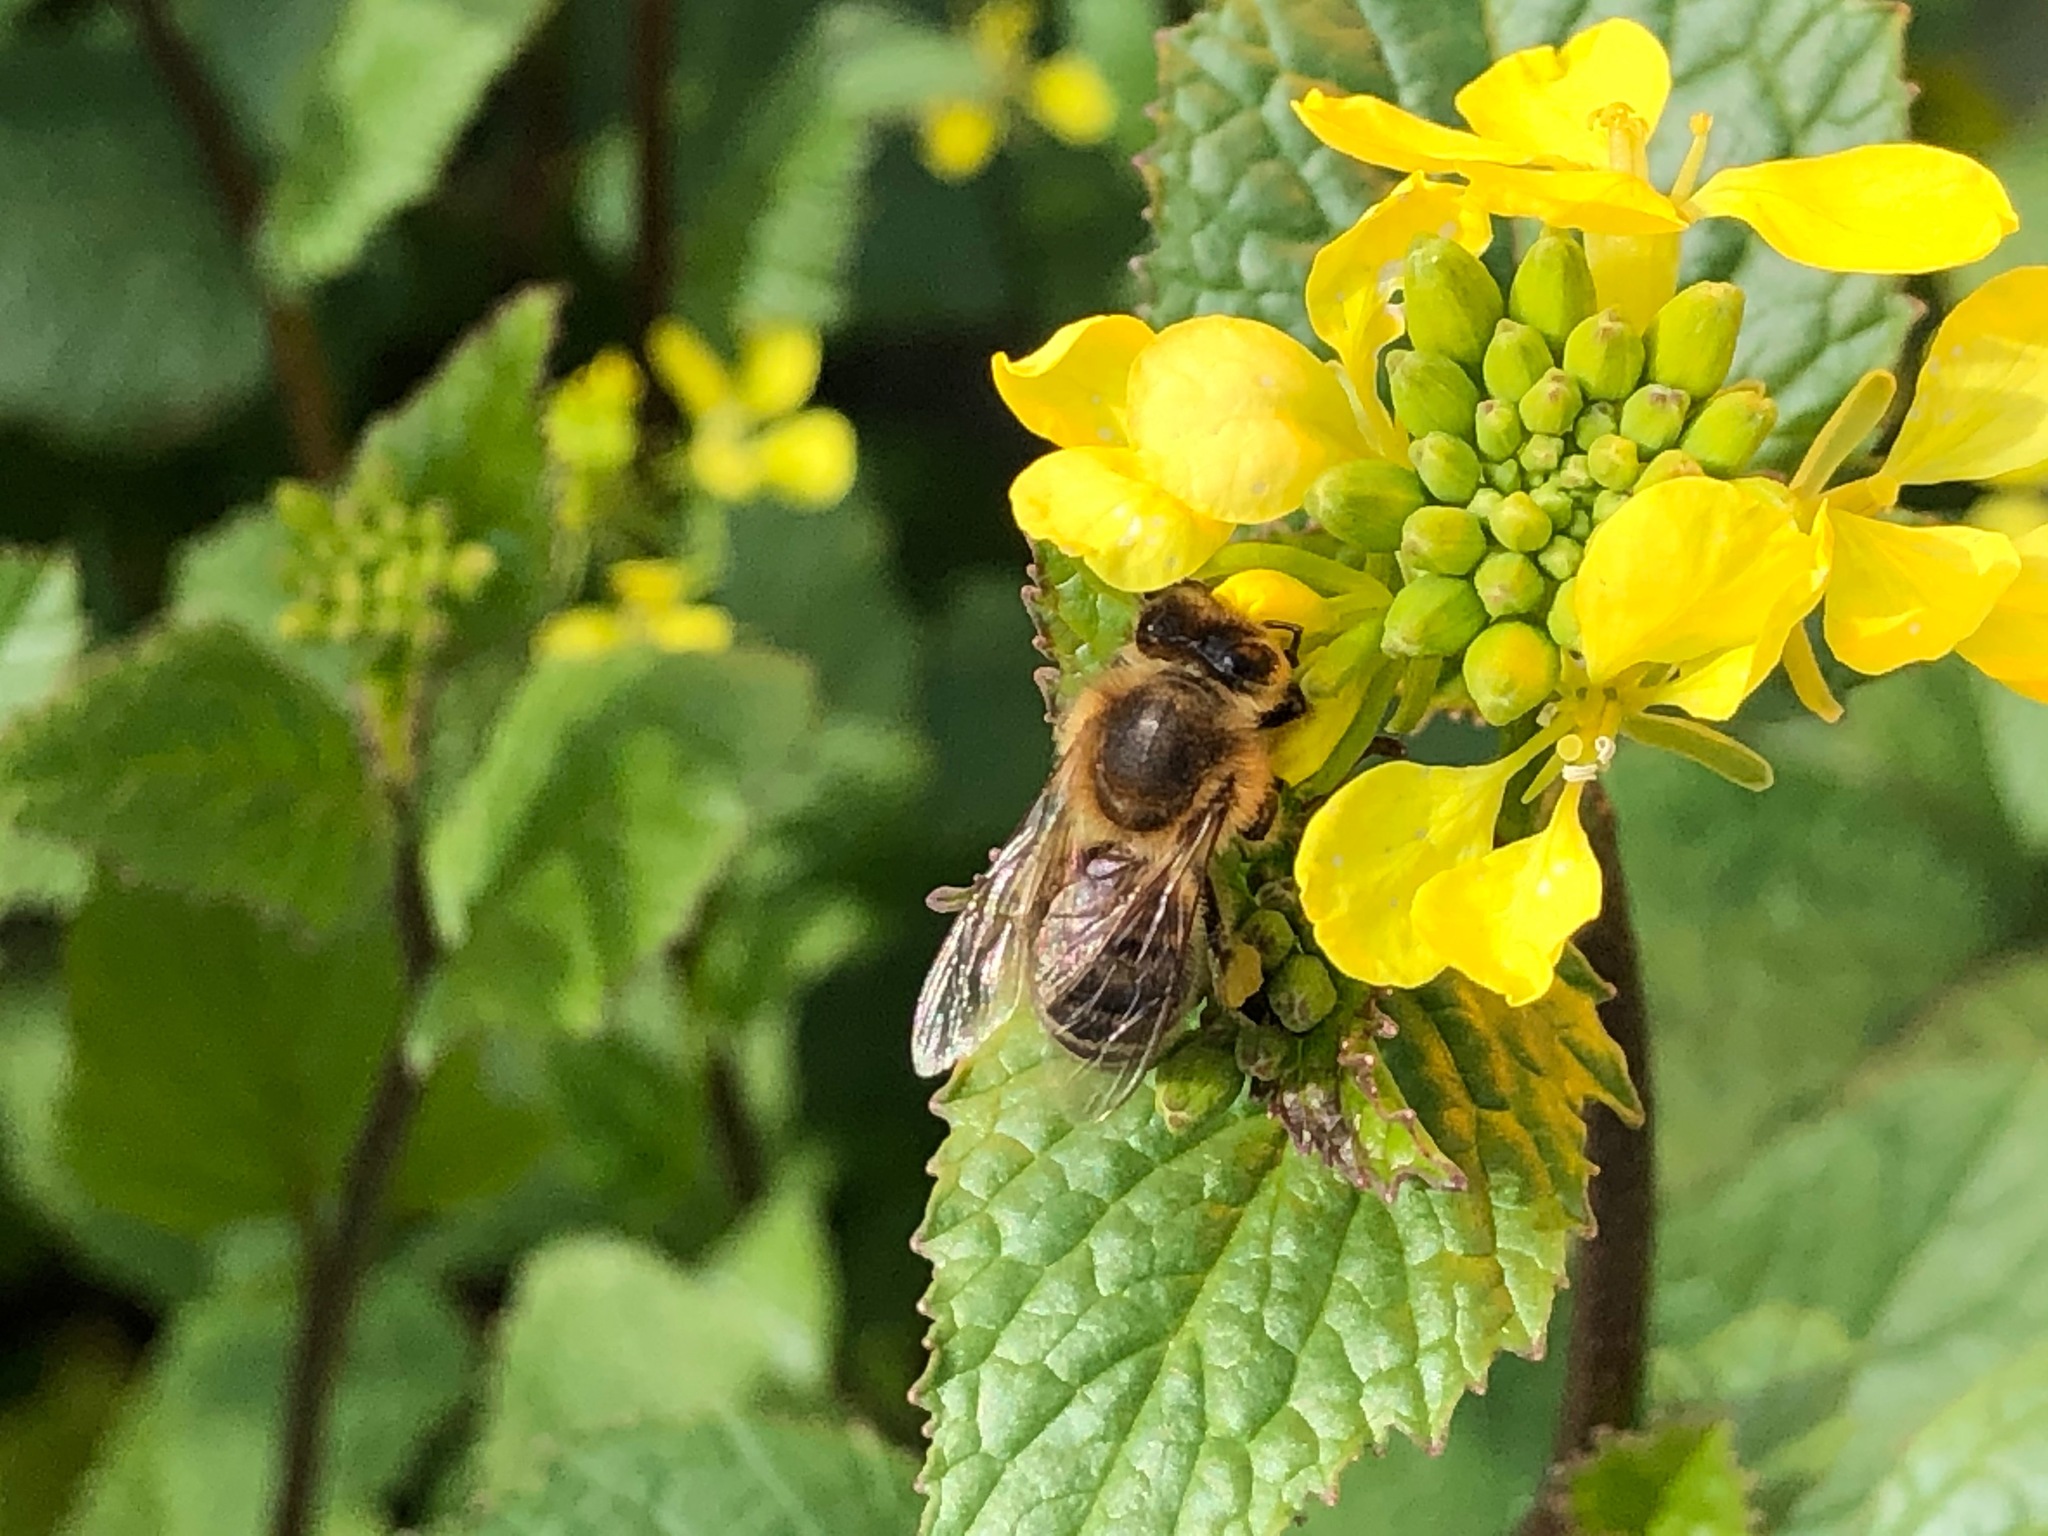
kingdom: Animalia
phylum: Arthropoda
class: Insecta
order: Hymenoptera
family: Apidae
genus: Apis
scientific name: Apis mellifera
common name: Honey bee
